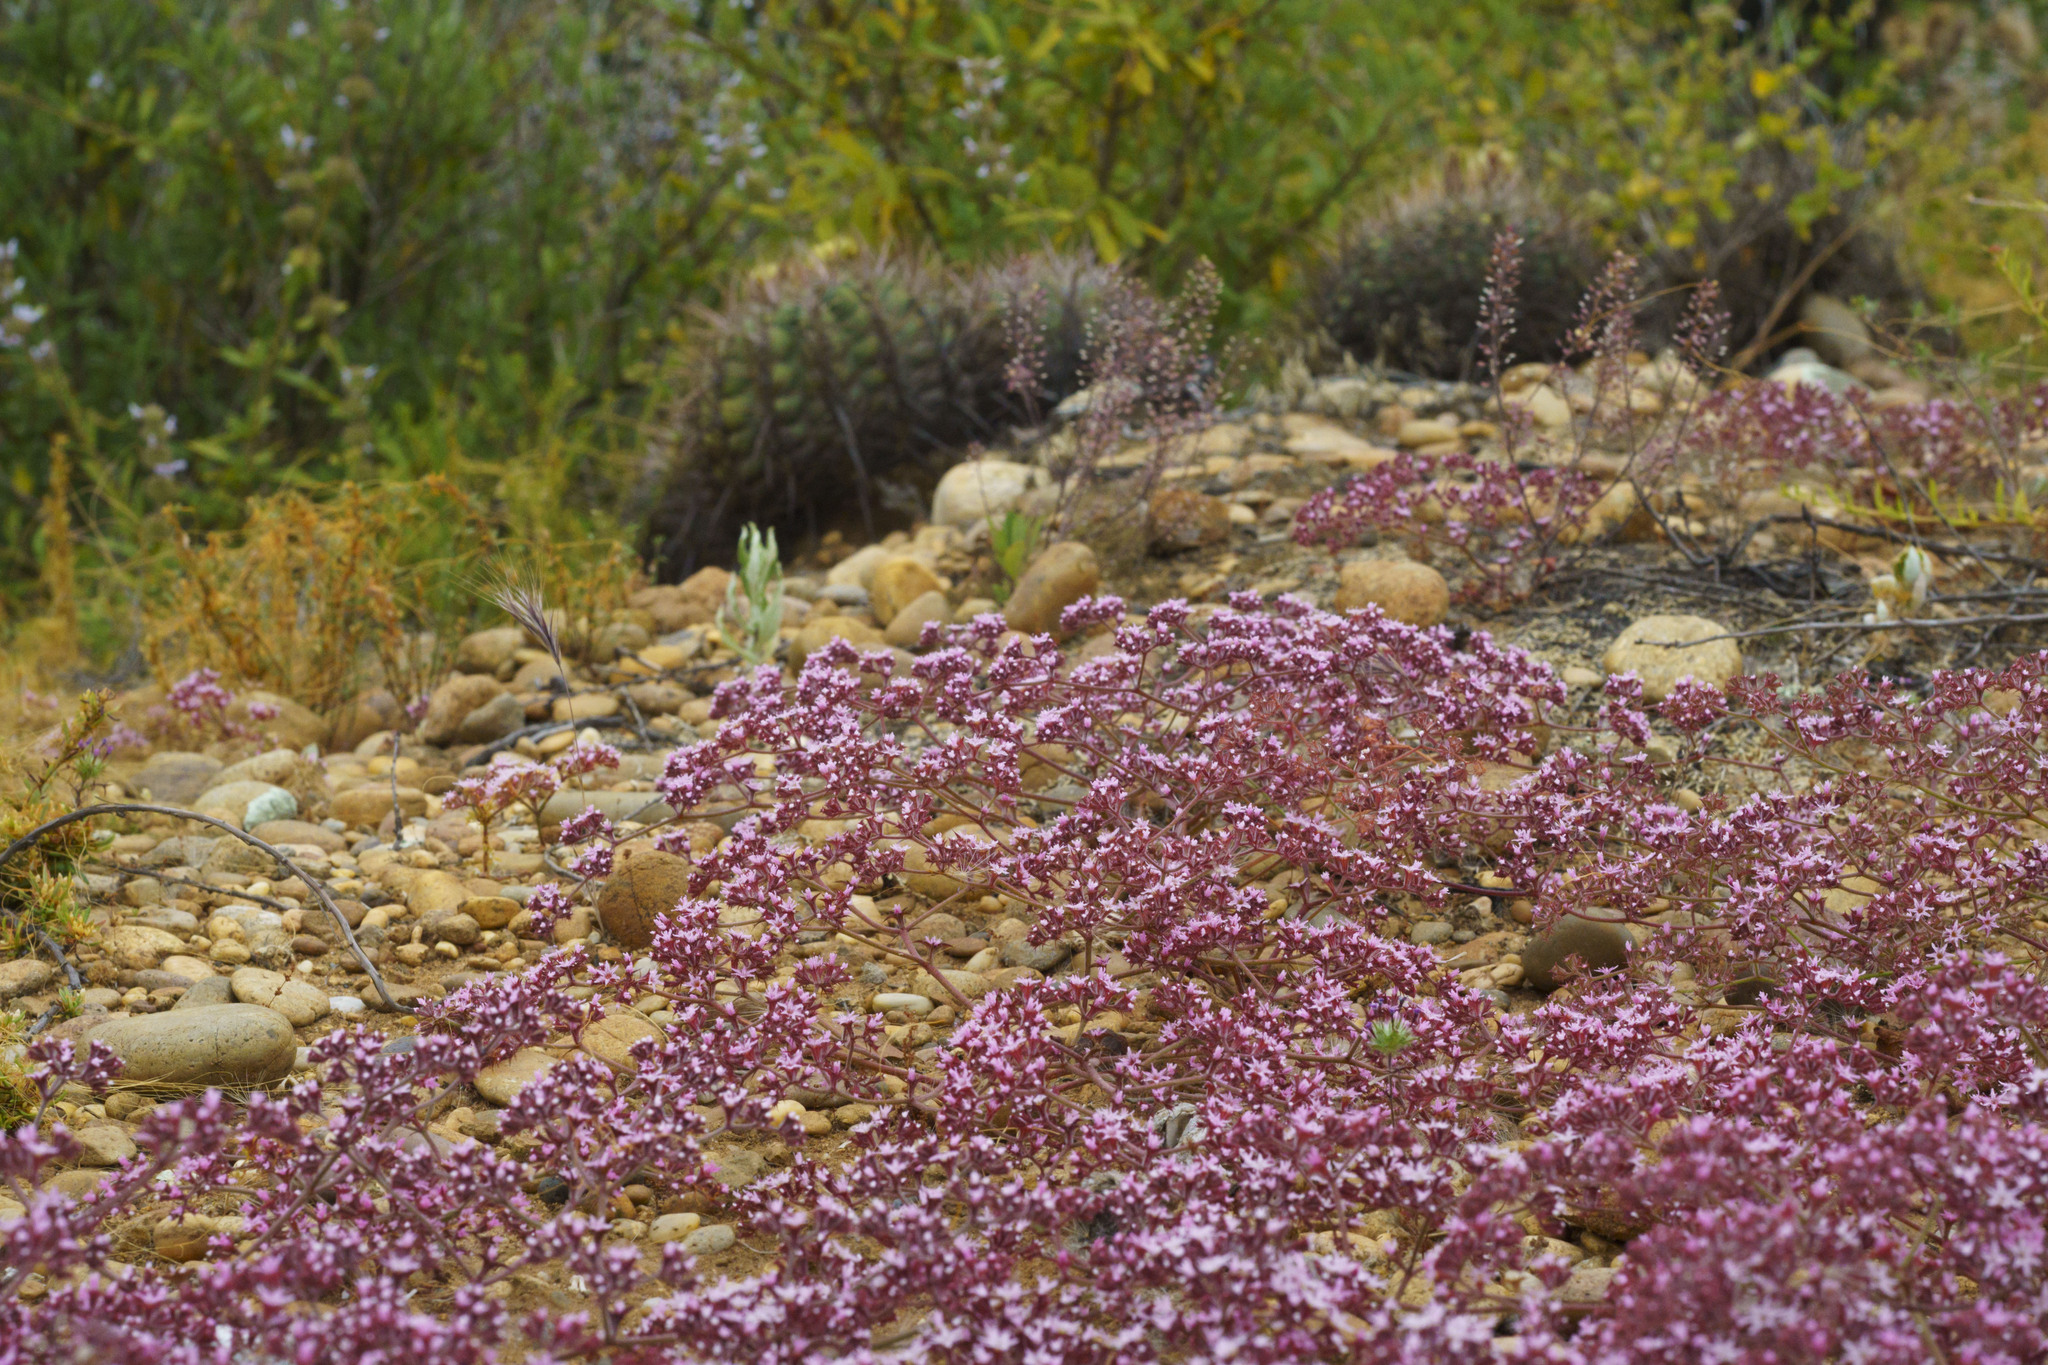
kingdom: Plantae
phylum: Tracheophyta
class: Magnoliopsida
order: Caryophyllales
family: Polygonaceae
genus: Chorizanthe
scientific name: Chorizanthe fimbriata
